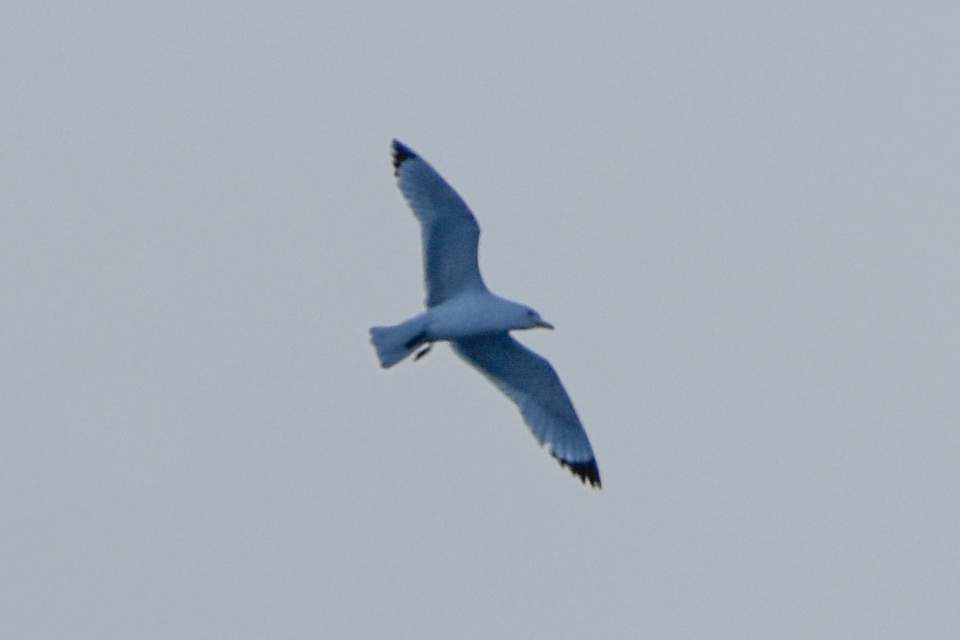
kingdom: Animalia
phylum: Chordata
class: Aves
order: Charadriiformes
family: Laridae
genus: Rissa
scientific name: Rissa tridactyla
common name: Black-legged kittiwake
